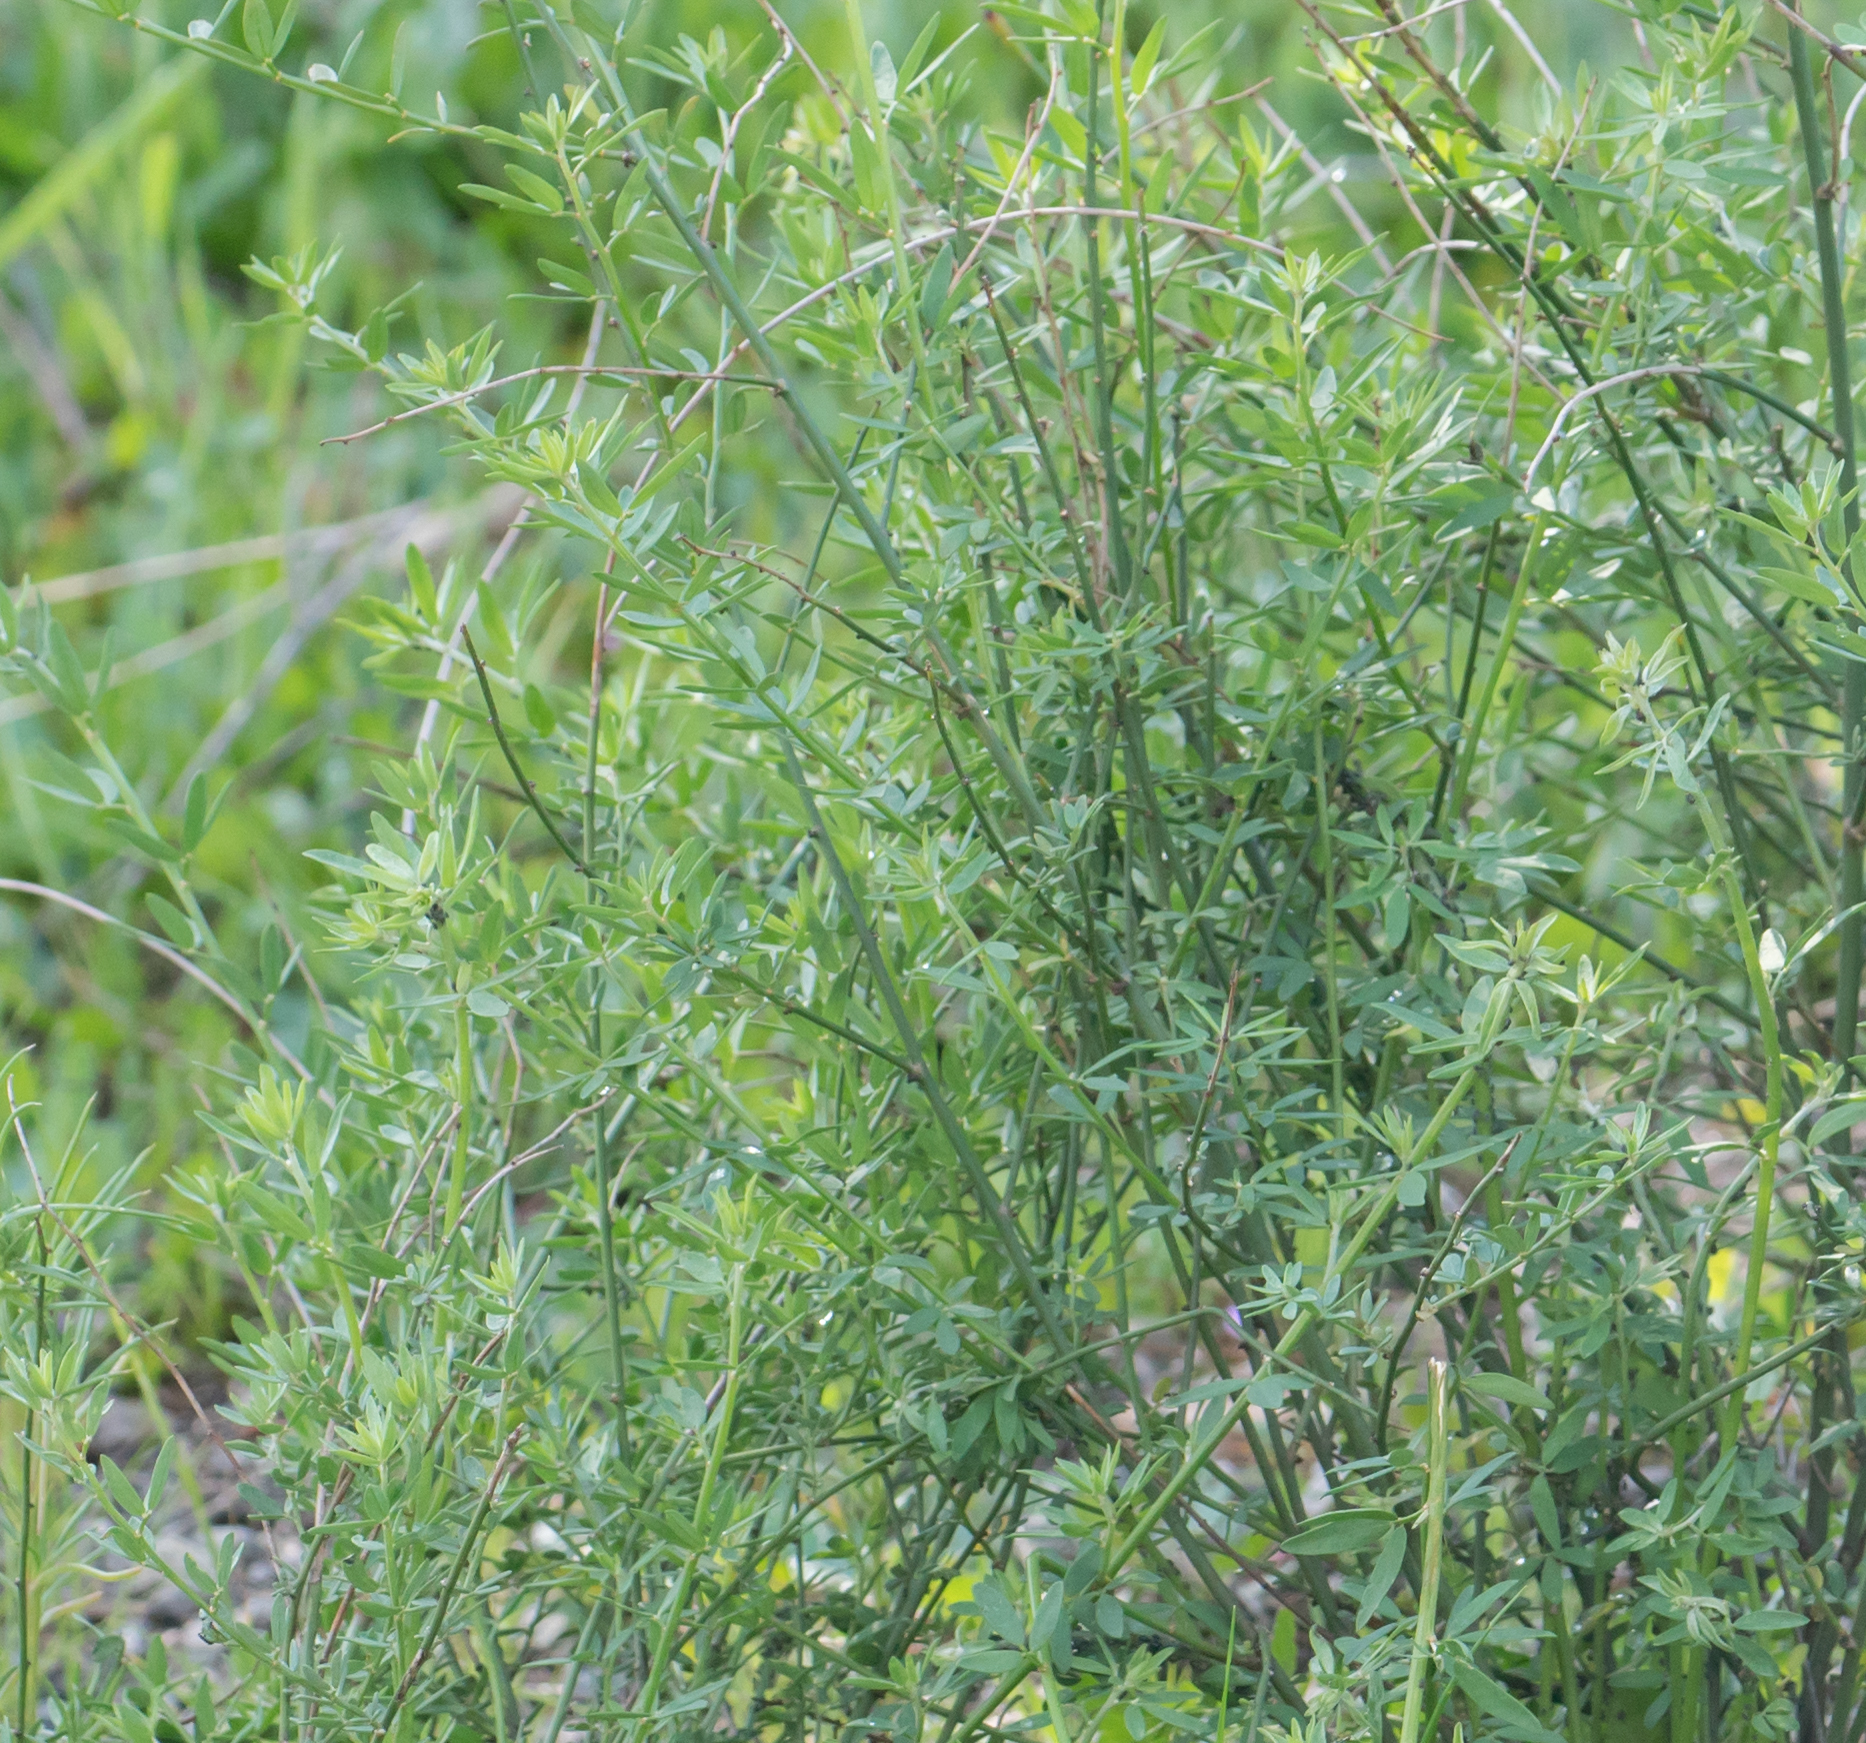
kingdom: Plantae
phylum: Tracheophyta
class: Magnoliopsida
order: Fabales
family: Fabaceae
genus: Acmispon
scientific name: Acmispon glaber
